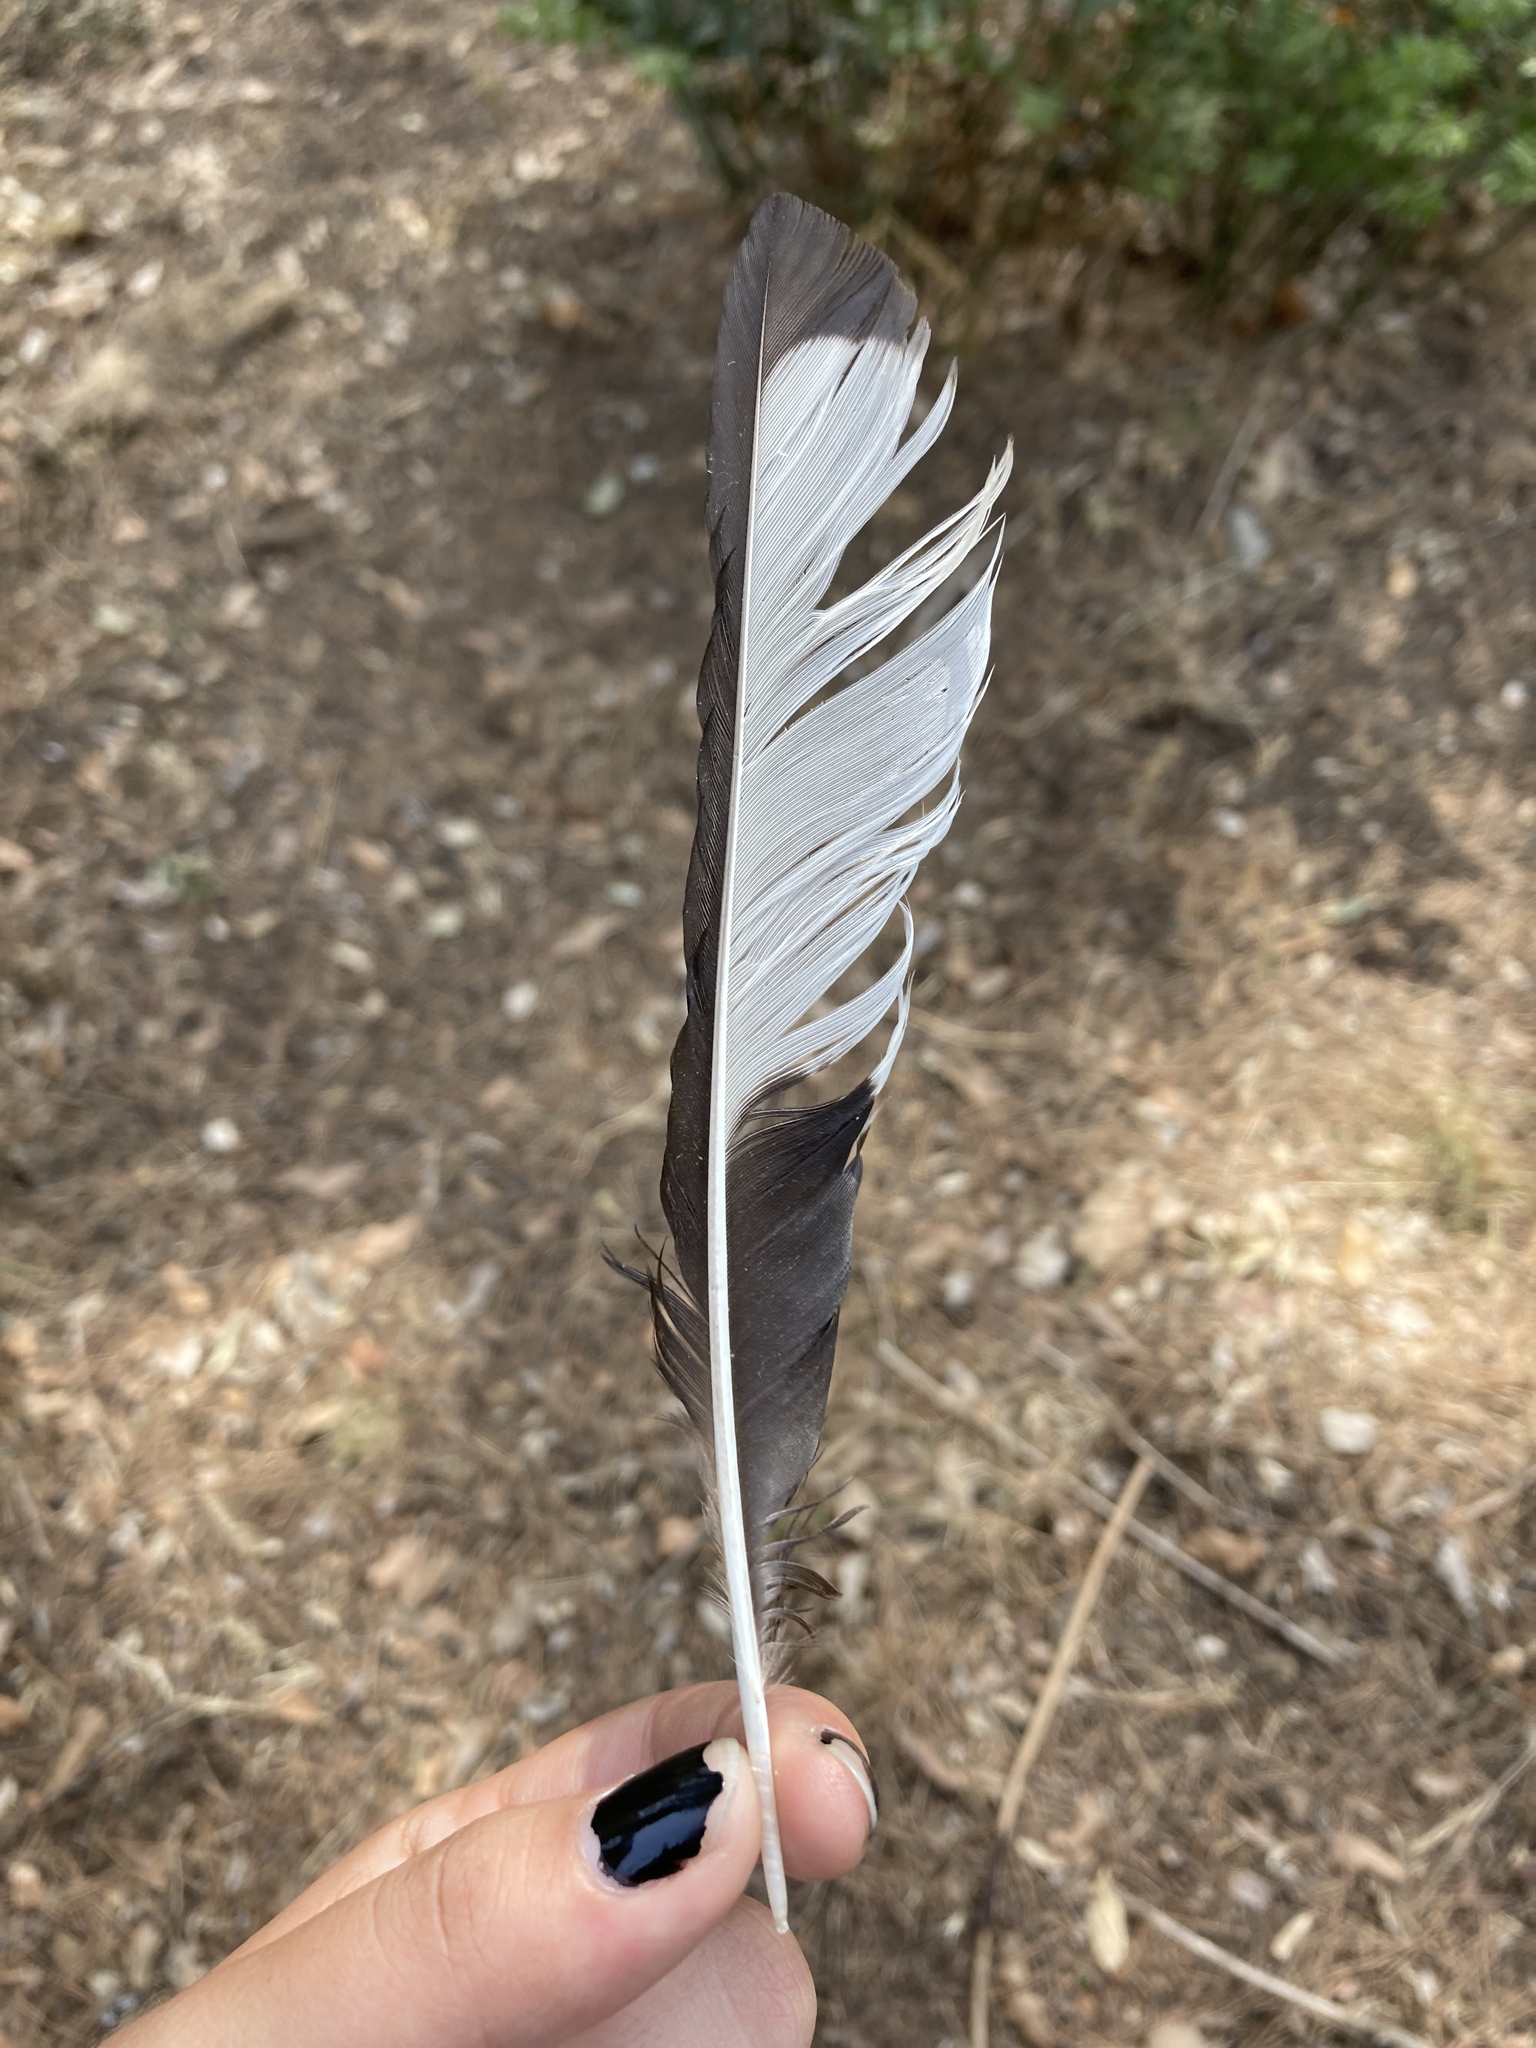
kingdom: Animalia
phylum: Chordata
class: Aves
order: Passeriformes
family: Corvidae
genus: Pica
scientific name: Pica pica
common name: Eurasian magpie
